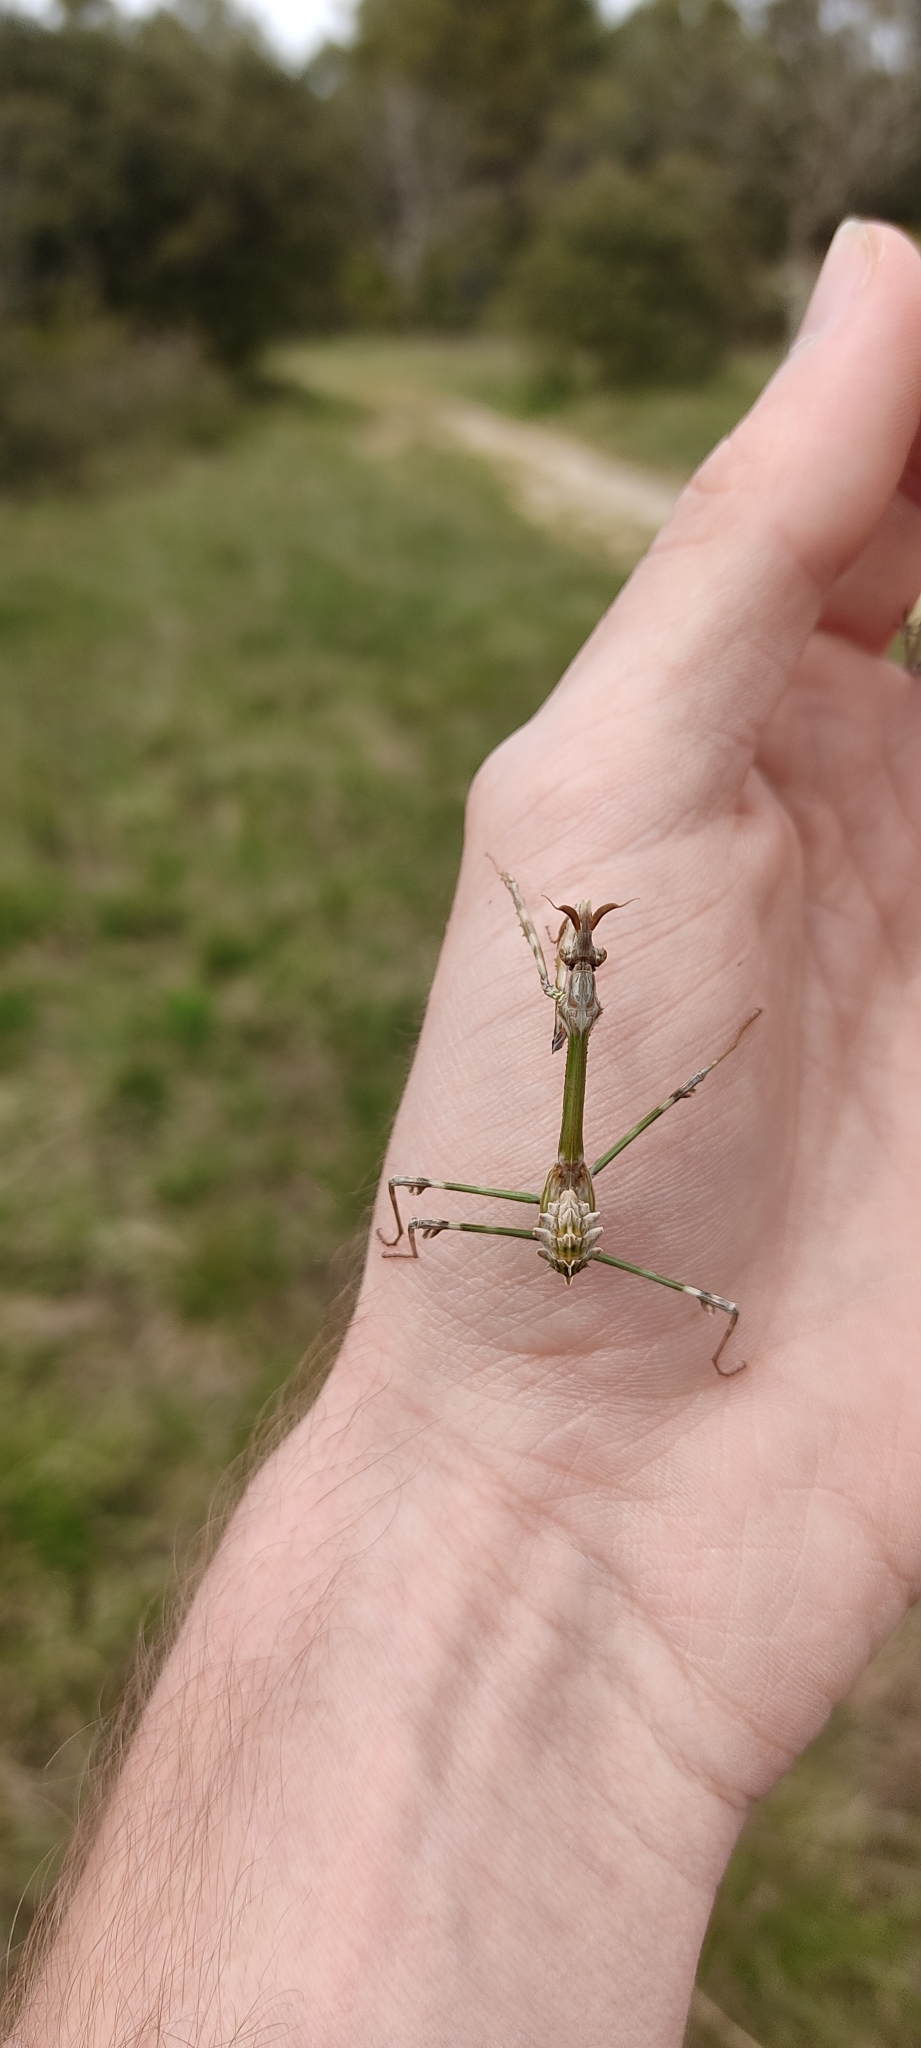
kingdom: Animalia
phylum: Arthropoda
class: Insecta
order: Mantodea
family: Empusidae
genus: Empusa
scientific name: Empusa pennata
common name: Conehead mantis
